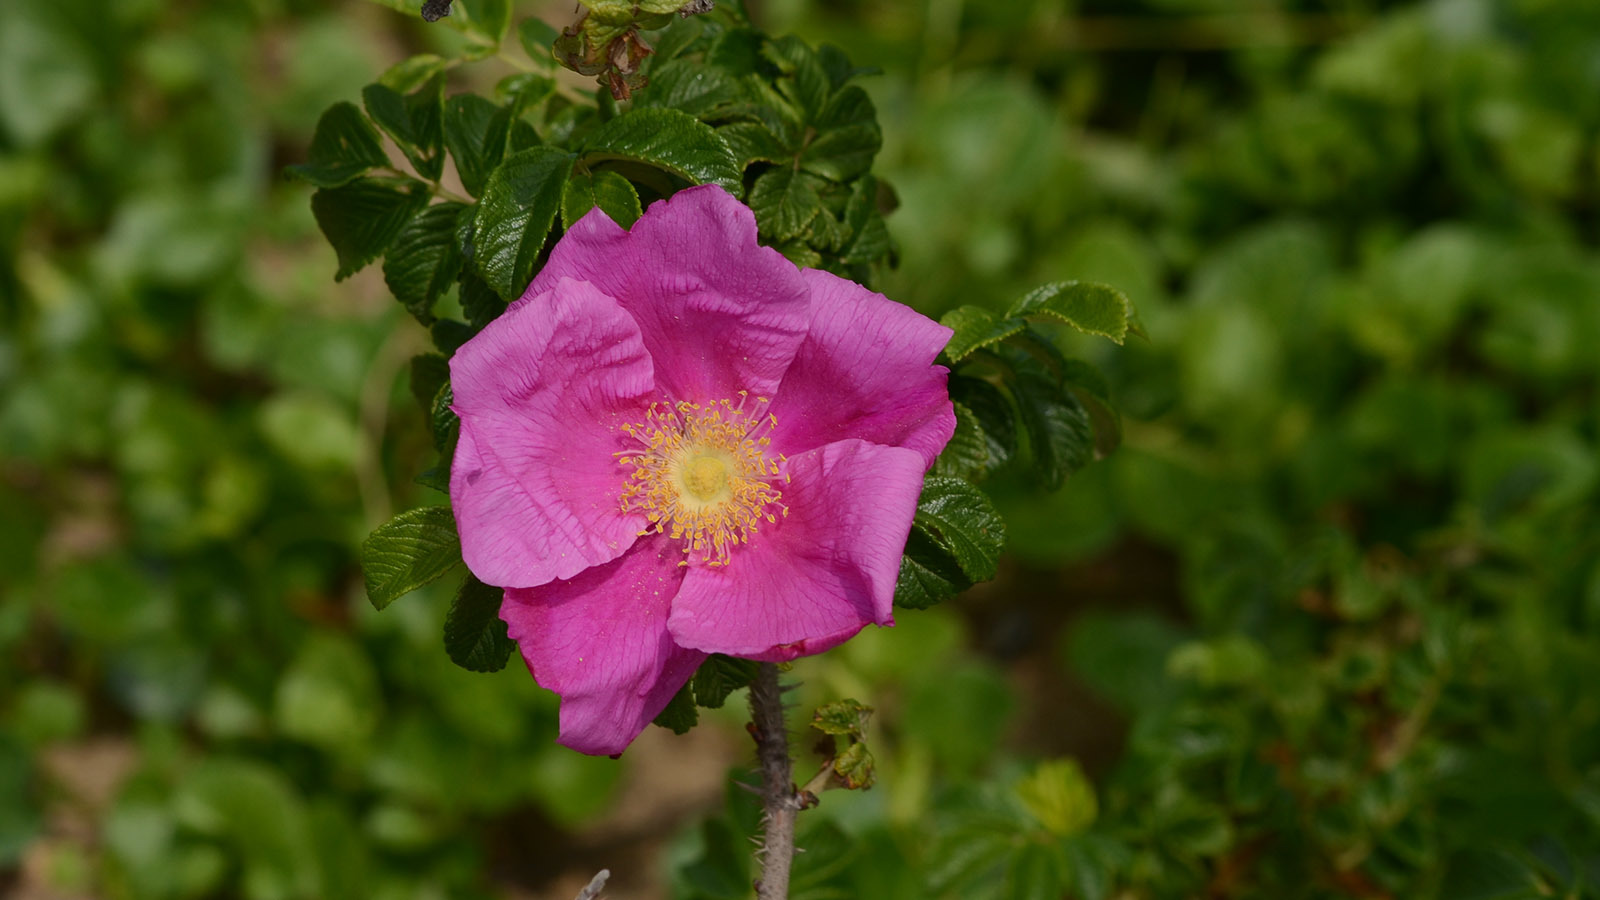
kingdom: Plantae
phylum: Tracheophyta
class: Magnoliopsida
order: Rosales
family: Rosaceae
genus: Rosa
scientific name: Rosa rugosa
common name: Japanese rose
